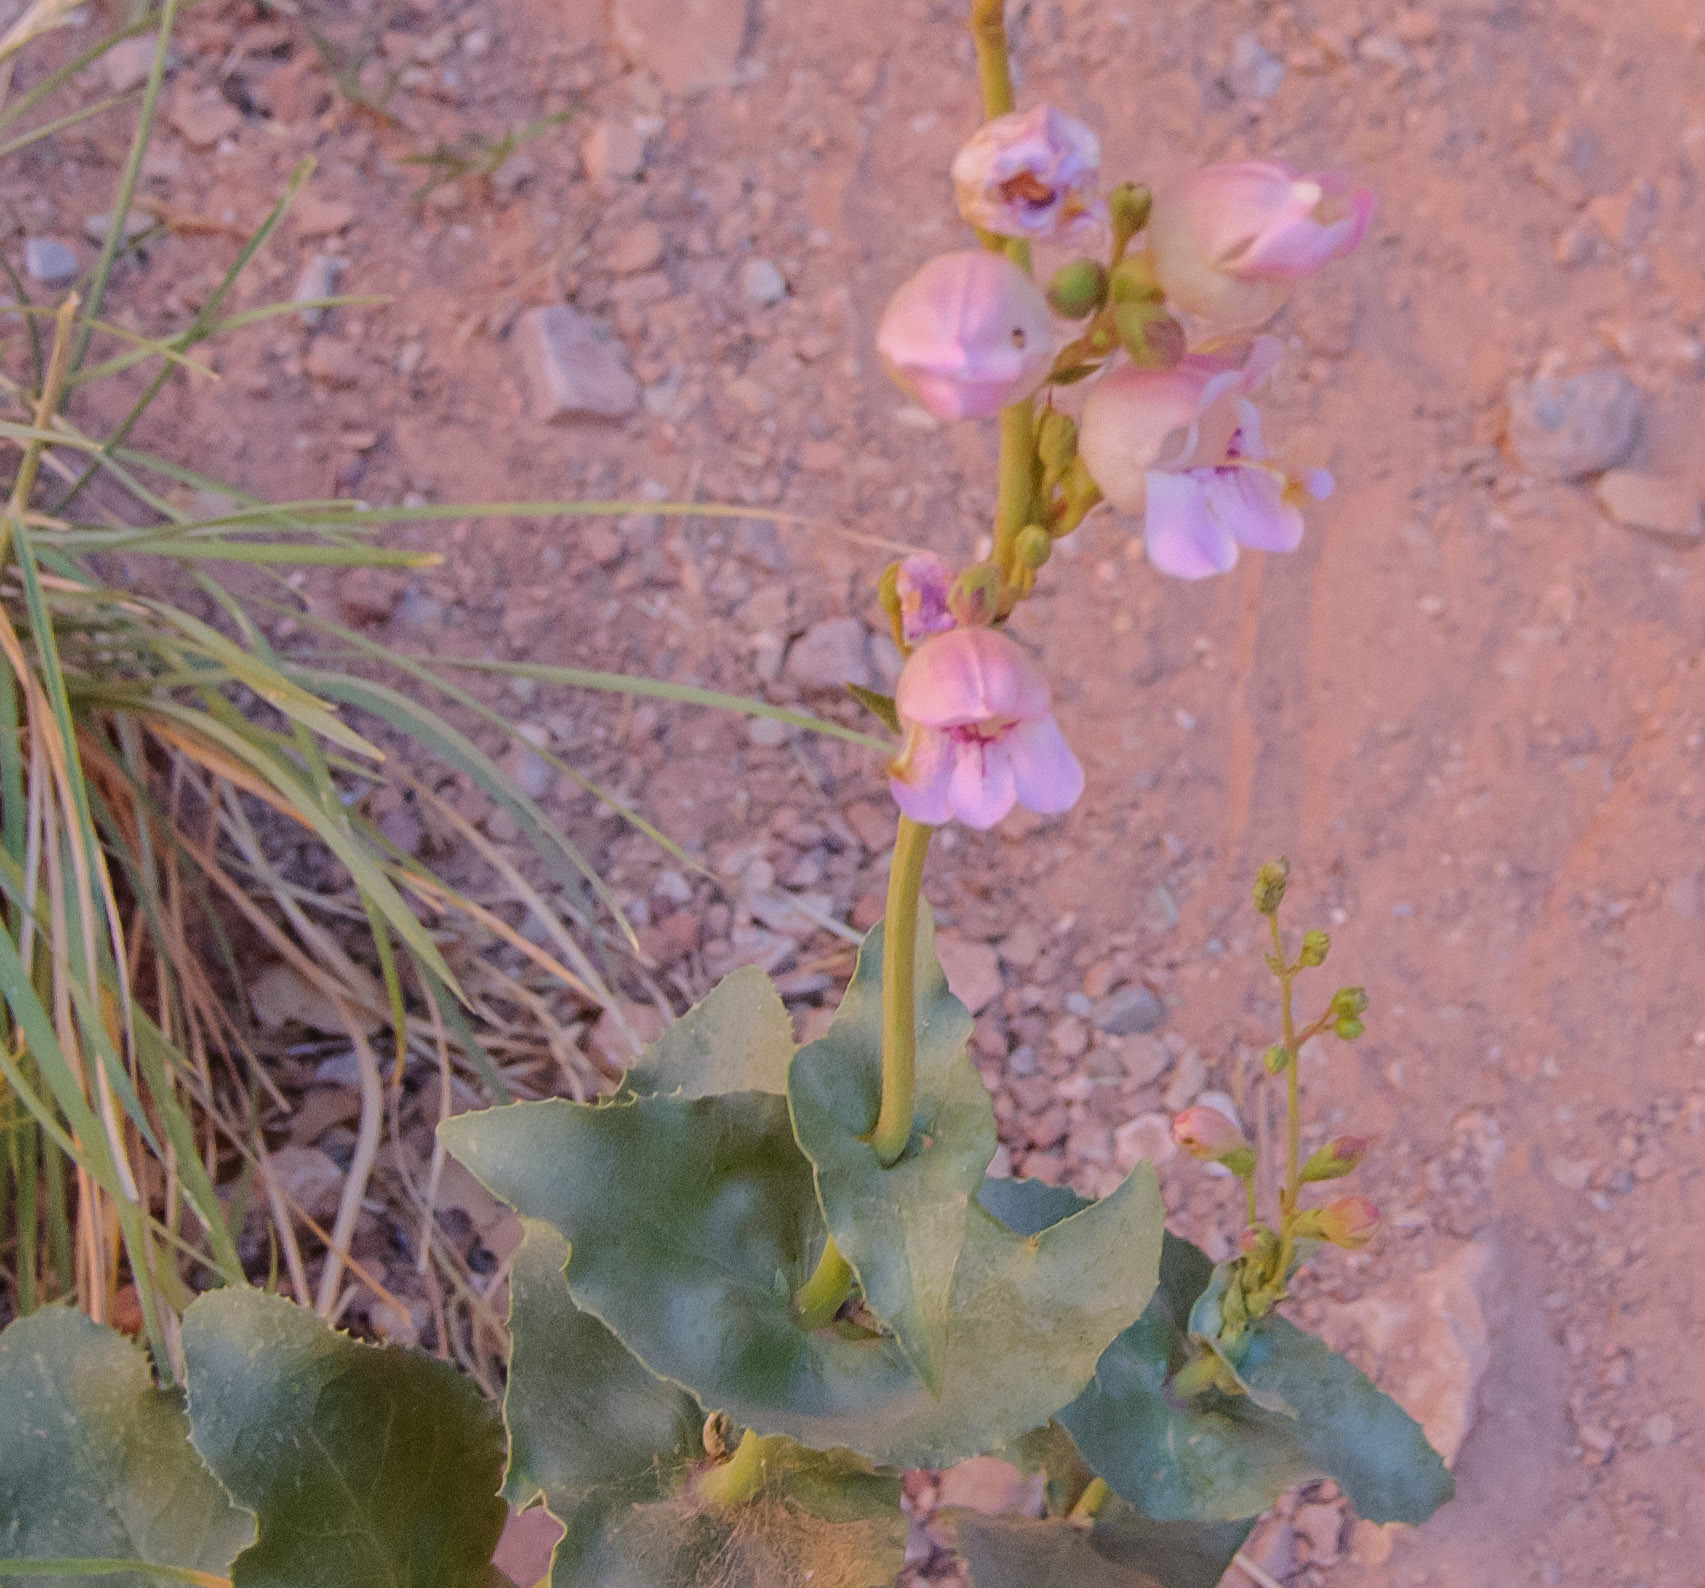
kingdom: Plantae
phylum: Tracheophyta
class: Magnoliopsida
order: Lamiales
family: Plantaginaceae
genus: Penstemon
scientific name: Penstemon palmeri
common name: Palmer penstemon
